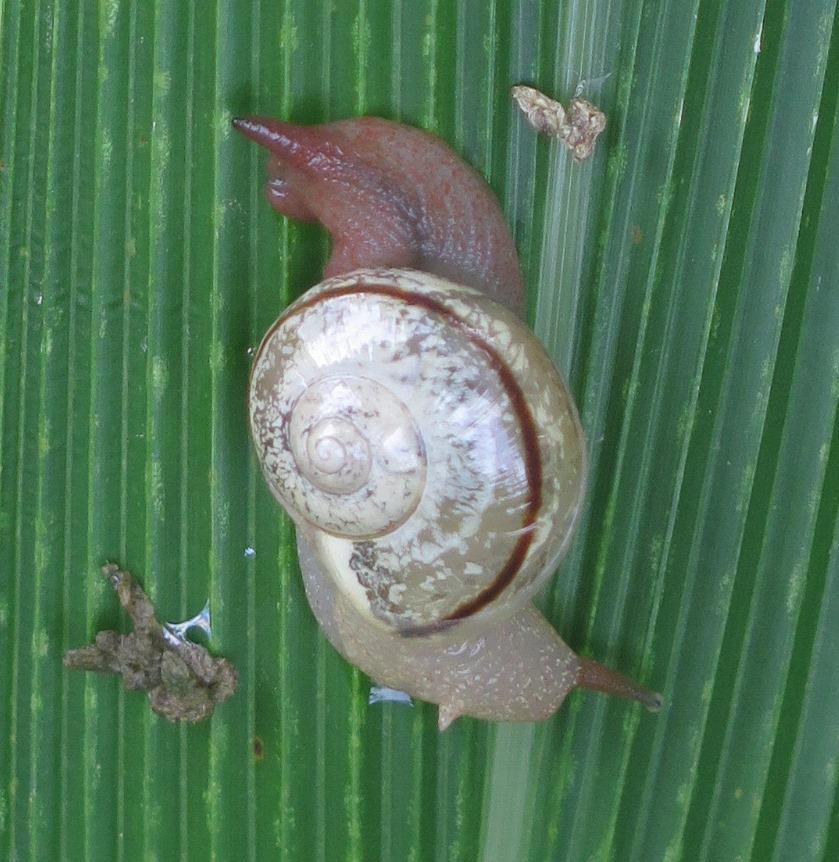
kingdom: Animalia
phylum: Mollusca
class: Gastropoda
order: Stylommatophora
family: Urocyclidae
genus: Kerkophorus
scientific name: Kerkophorus vitalis
